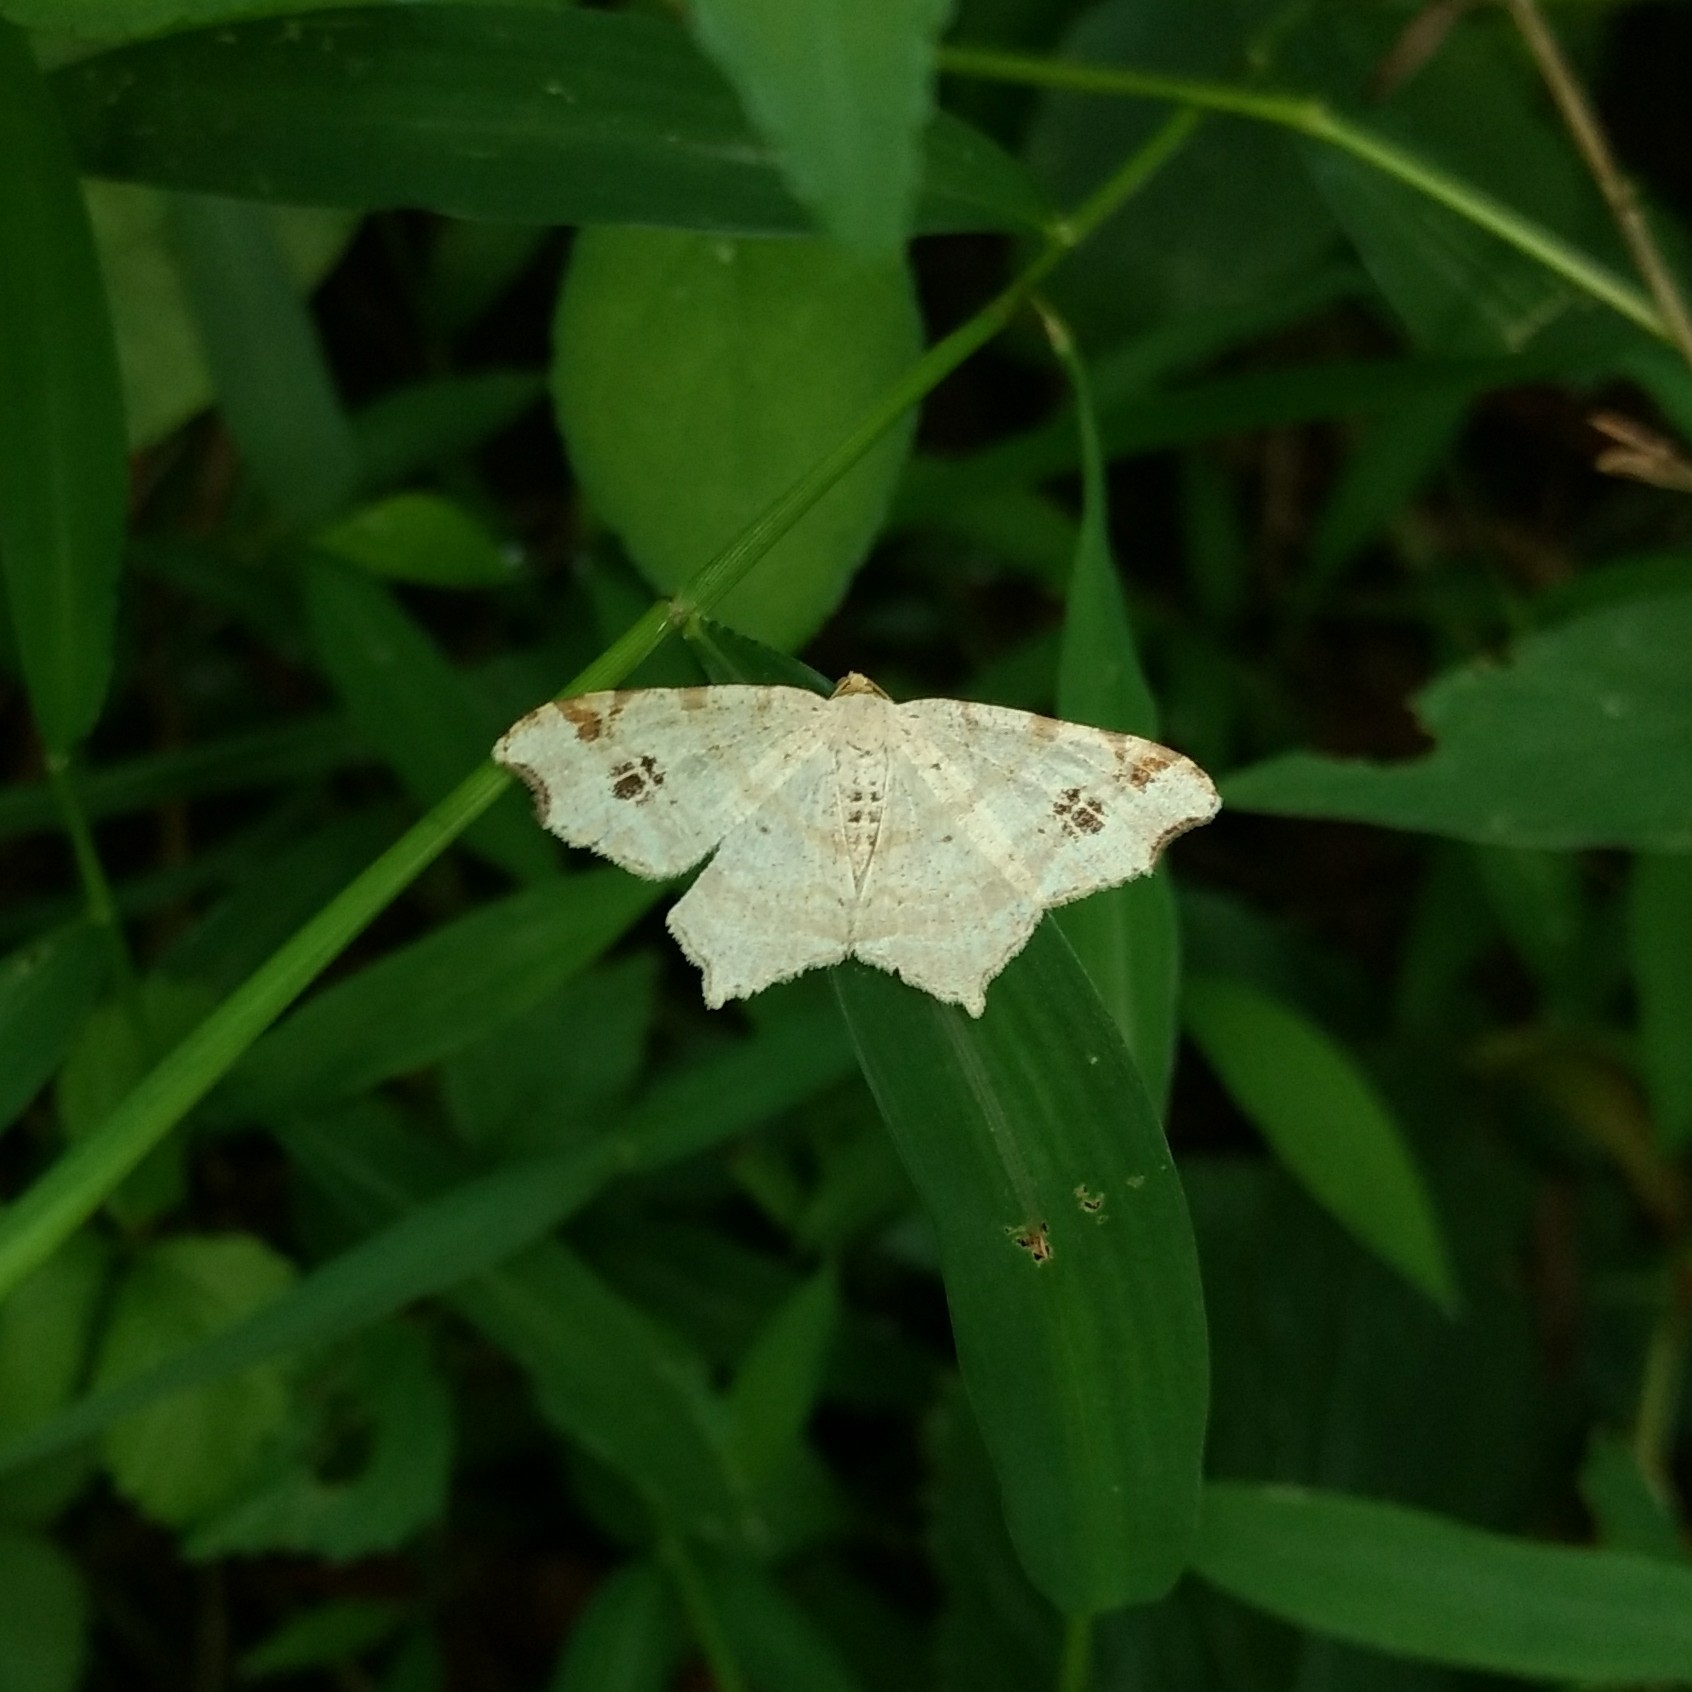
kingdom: Animalia
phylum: Arthropoda
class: Insecta
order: Lepidoptera
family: Geometridae
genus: Macaria
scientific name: Macaria aemulataria
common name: Common angle
